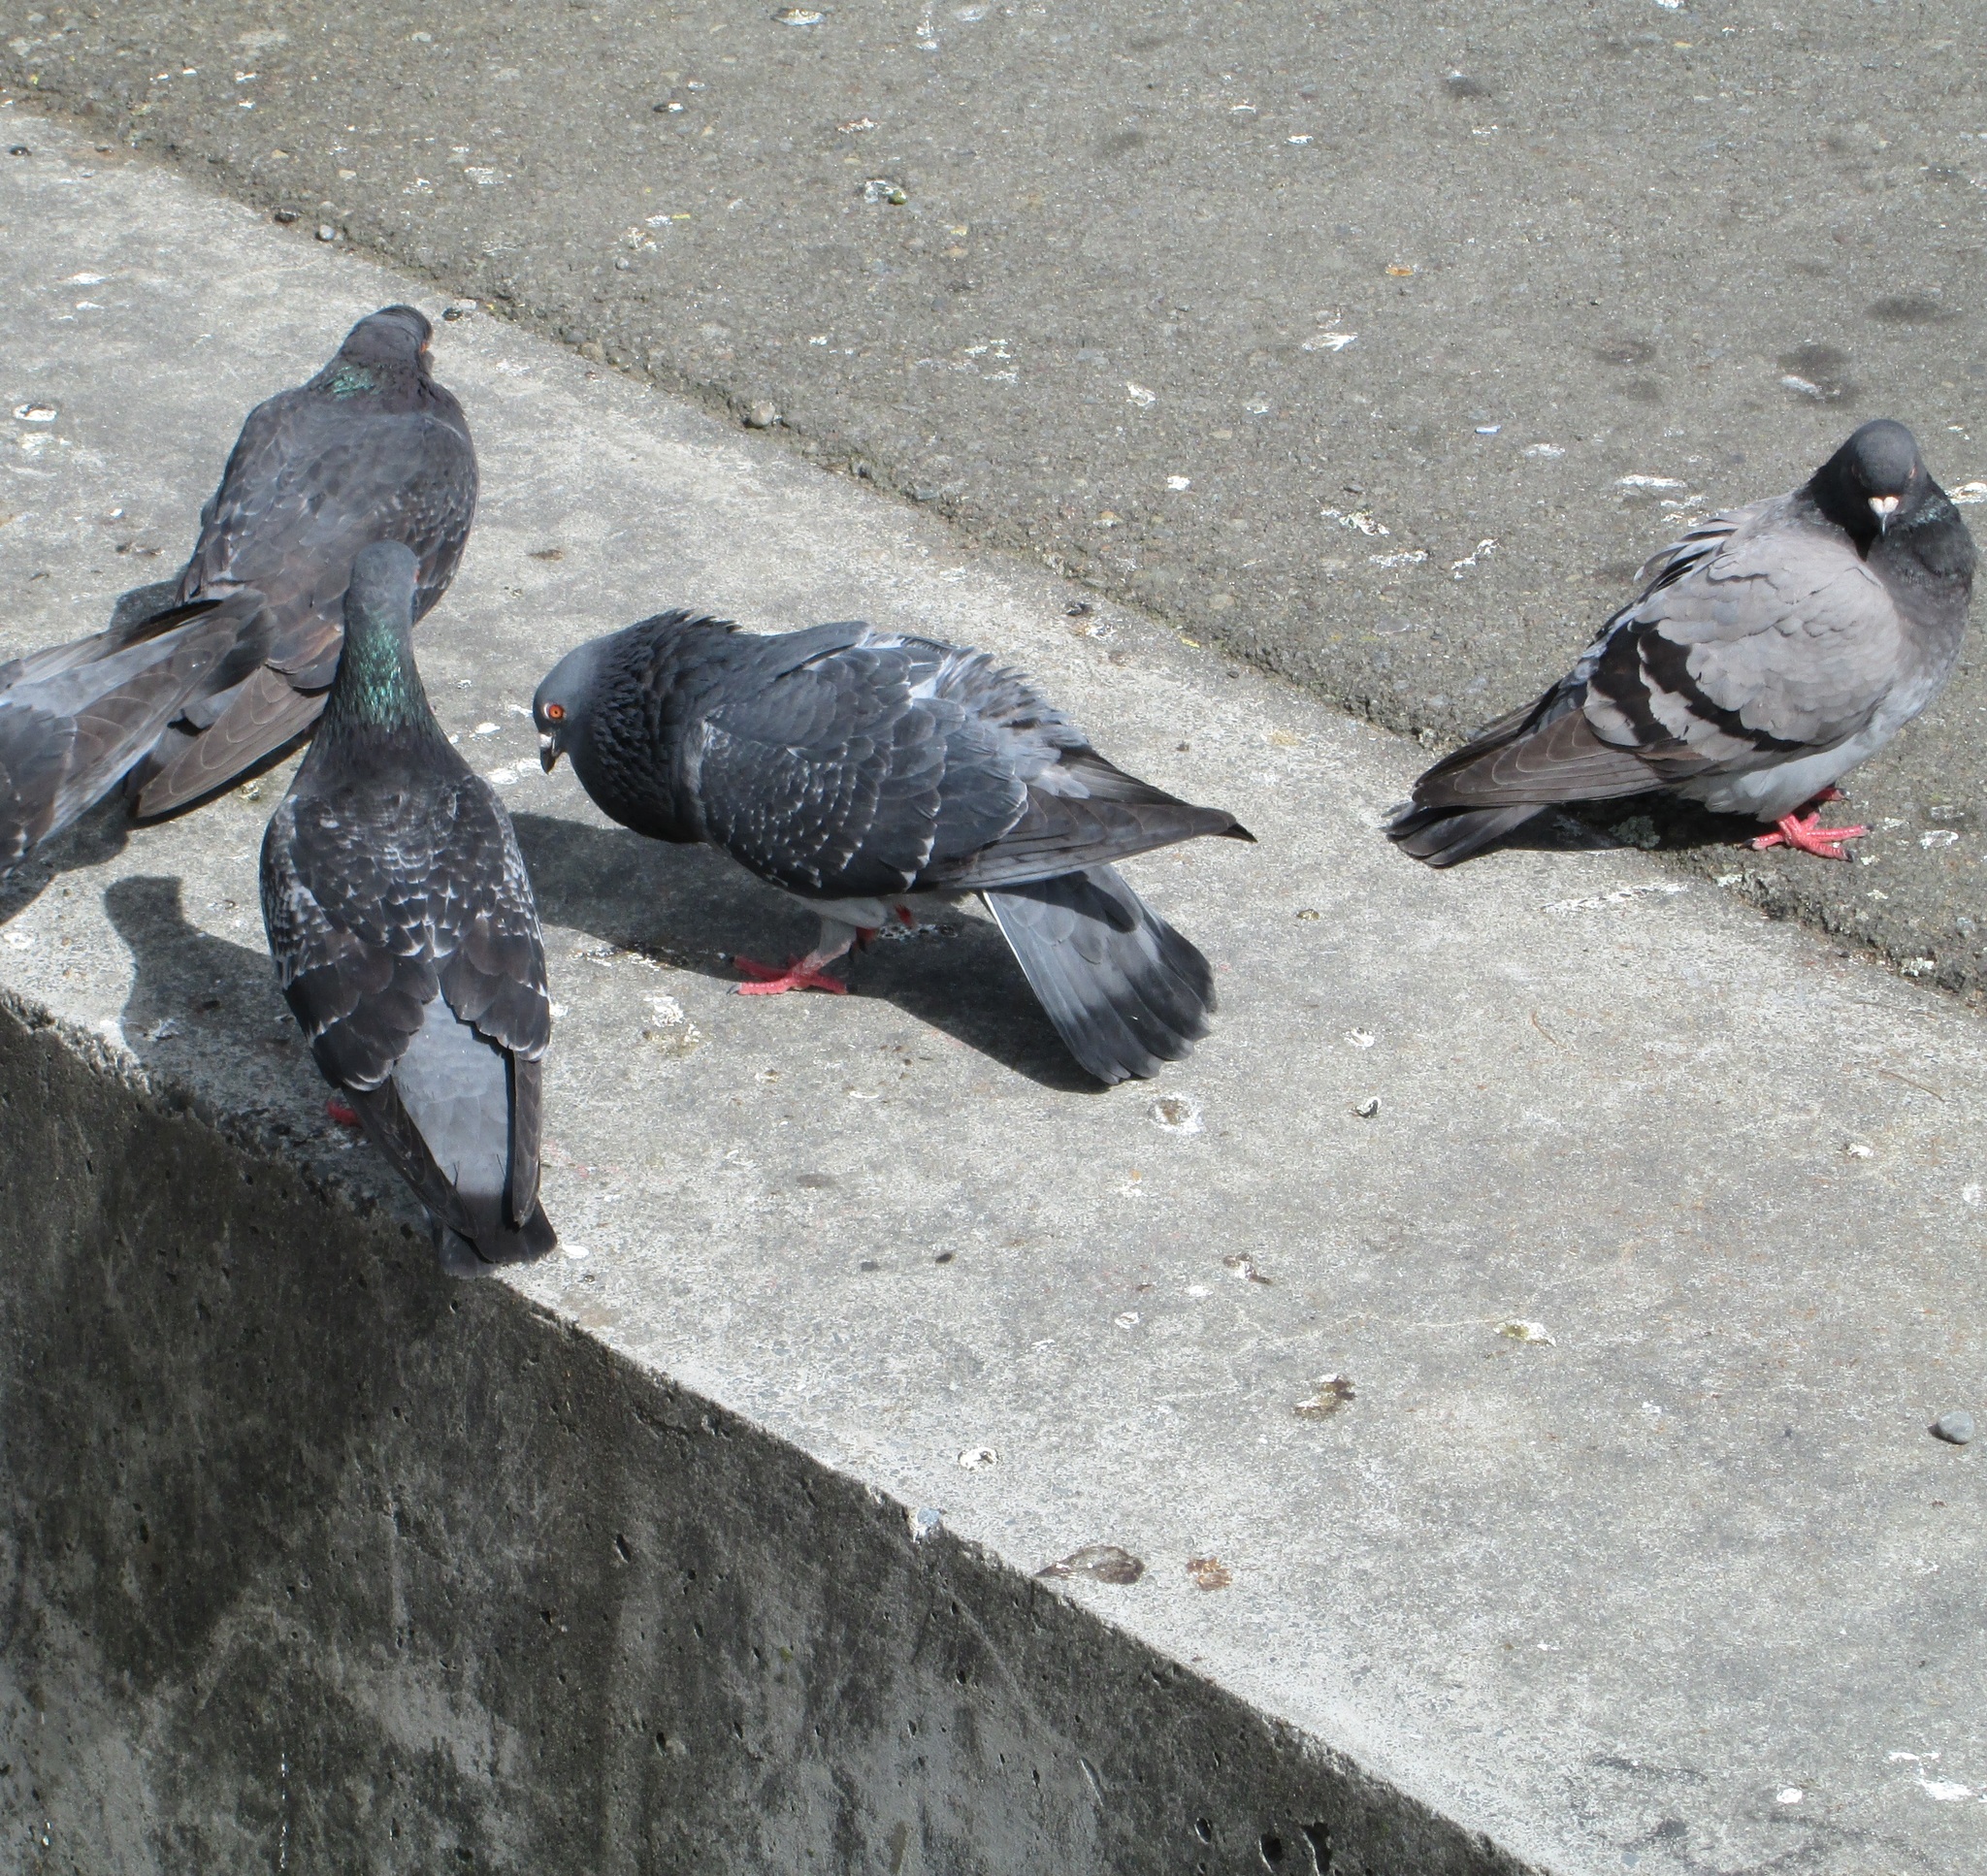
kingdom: Animalia
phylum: Chordata
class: Aves
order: Columbiformes
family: Columbidae
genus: Columba
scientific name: Columba livia
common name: Rock pigeon
